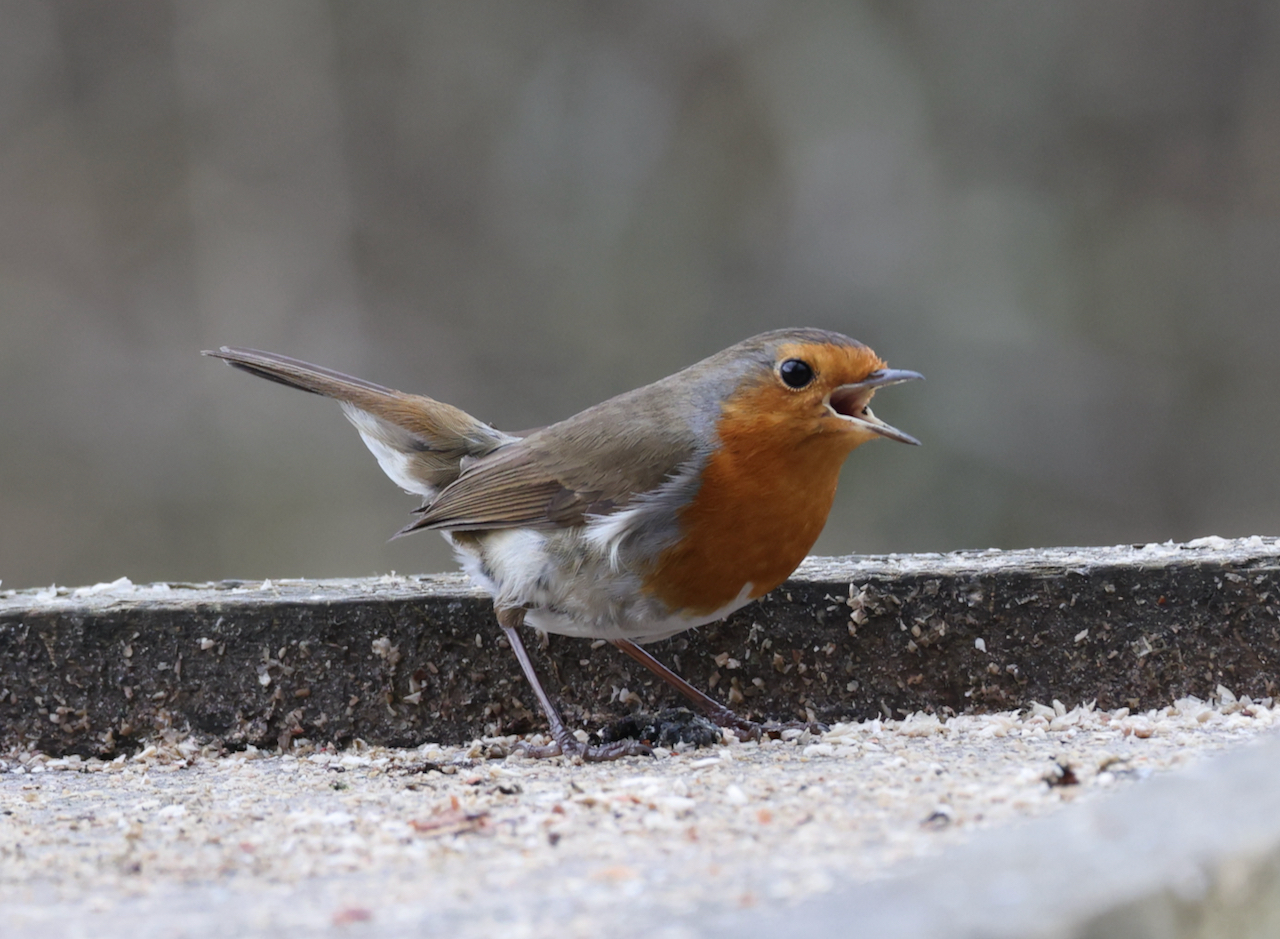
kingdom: Animalia
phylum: Chordata
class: Aves
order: Passeriformes
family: Muscicapidae
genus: Erithacus
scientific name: Erithacus rubecula
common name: European robin
